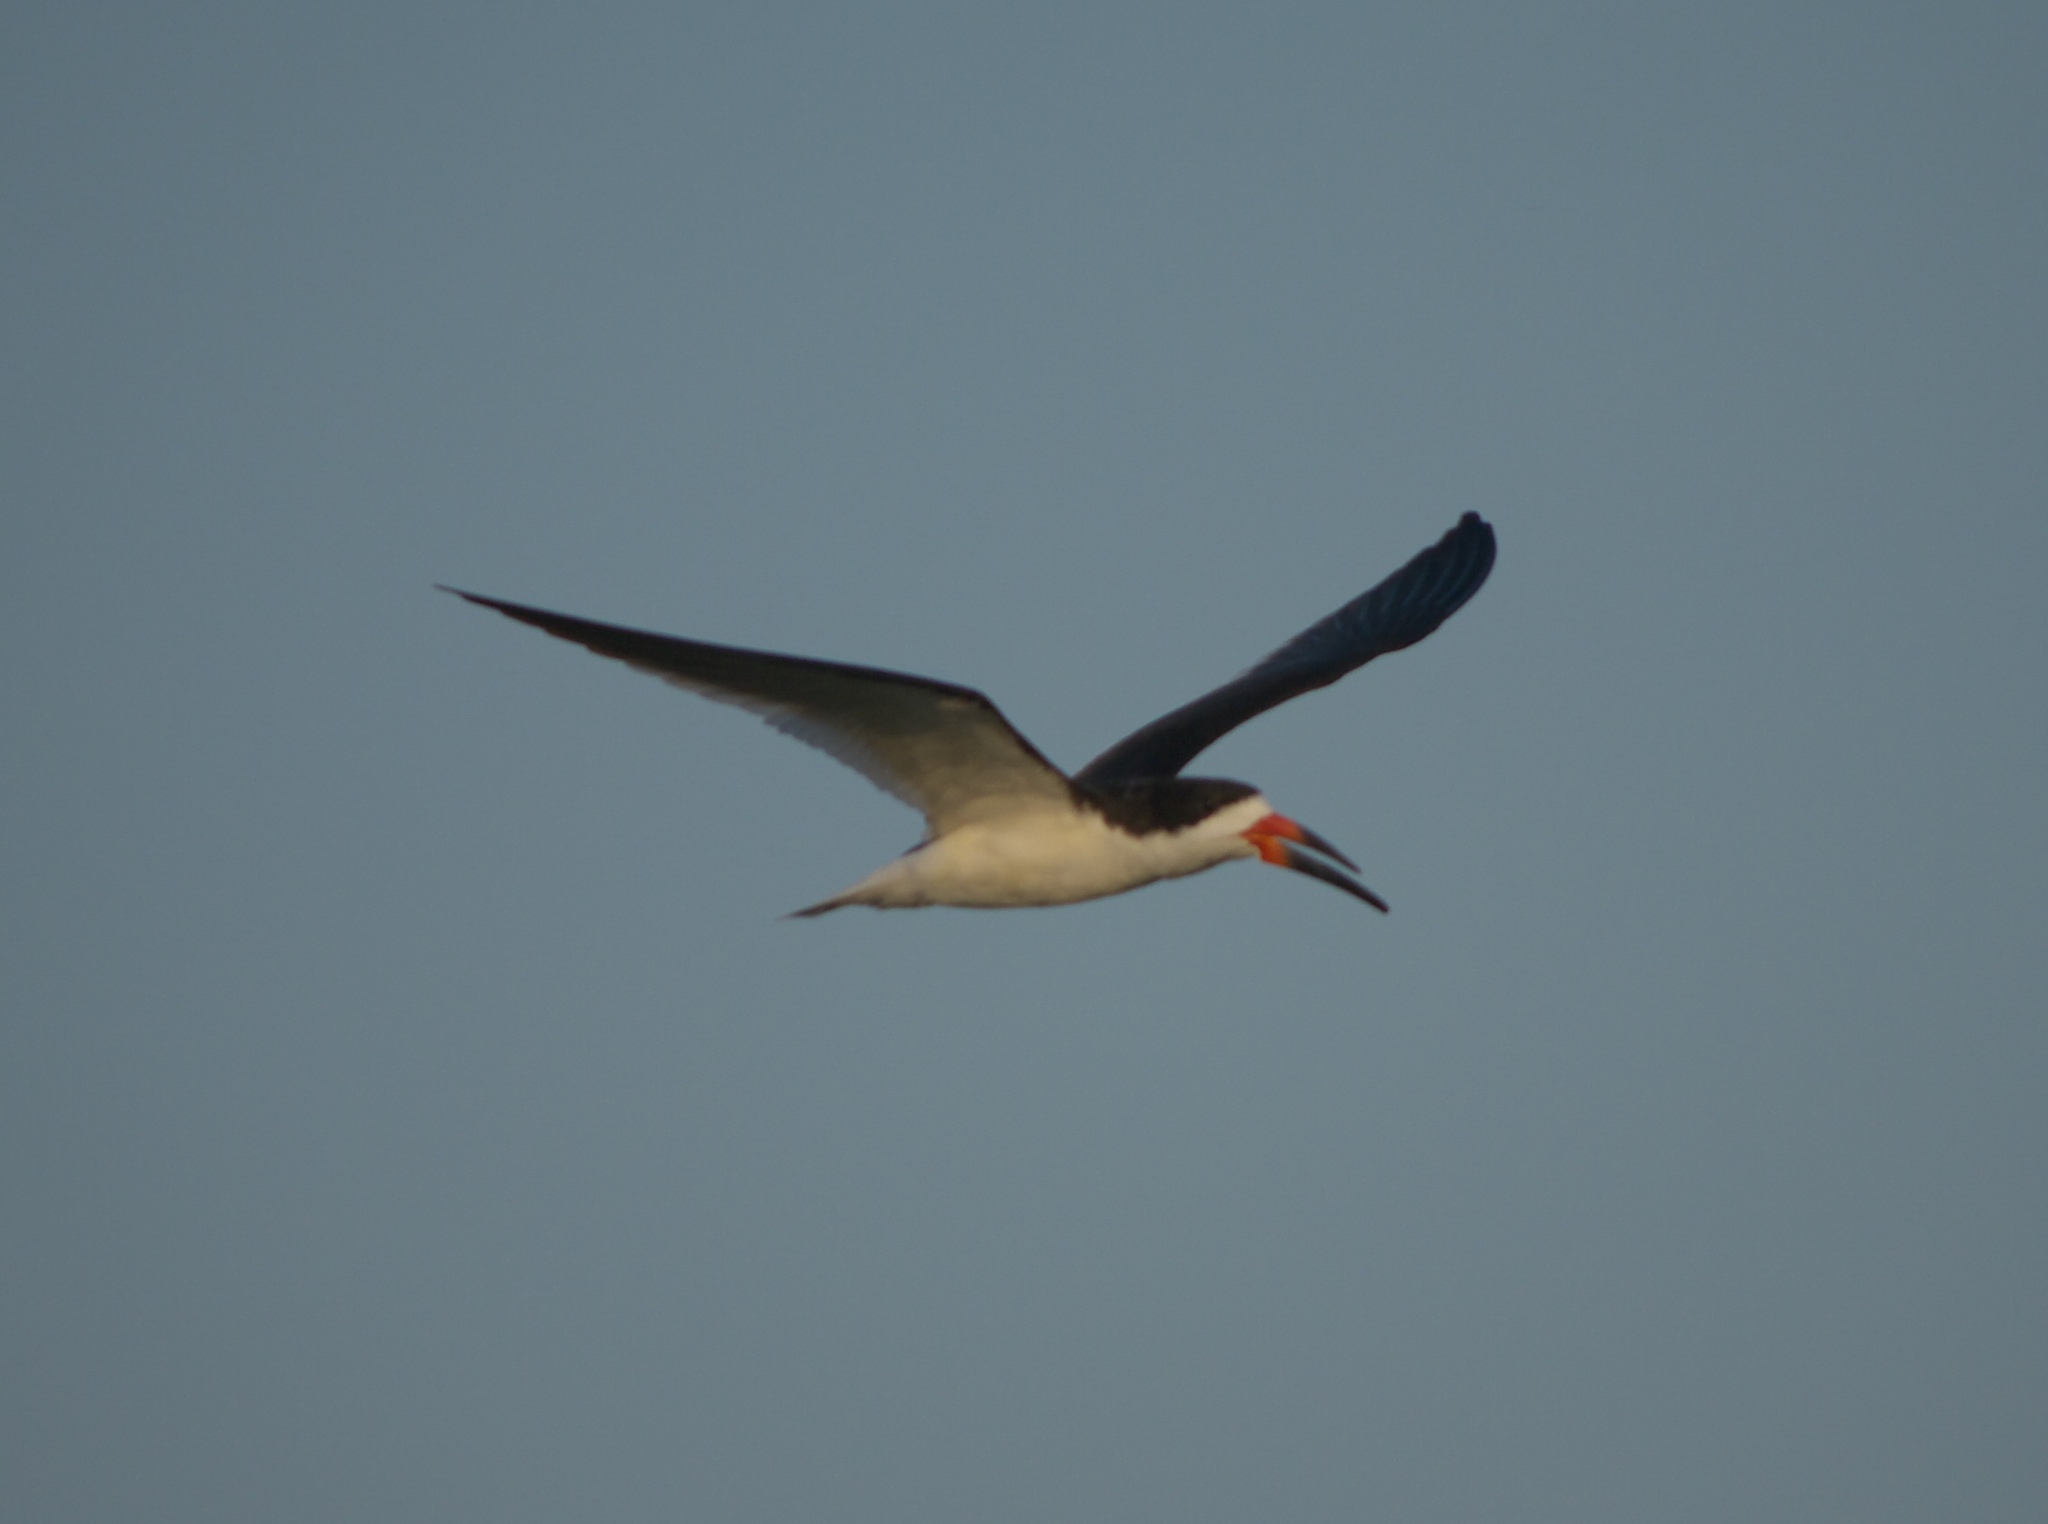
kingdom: Animalia
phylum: Chordata
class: Aves
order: Charadriiformes
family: Laridae
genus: Rynchops
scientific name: Rynchops niger
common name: Black skimmer
